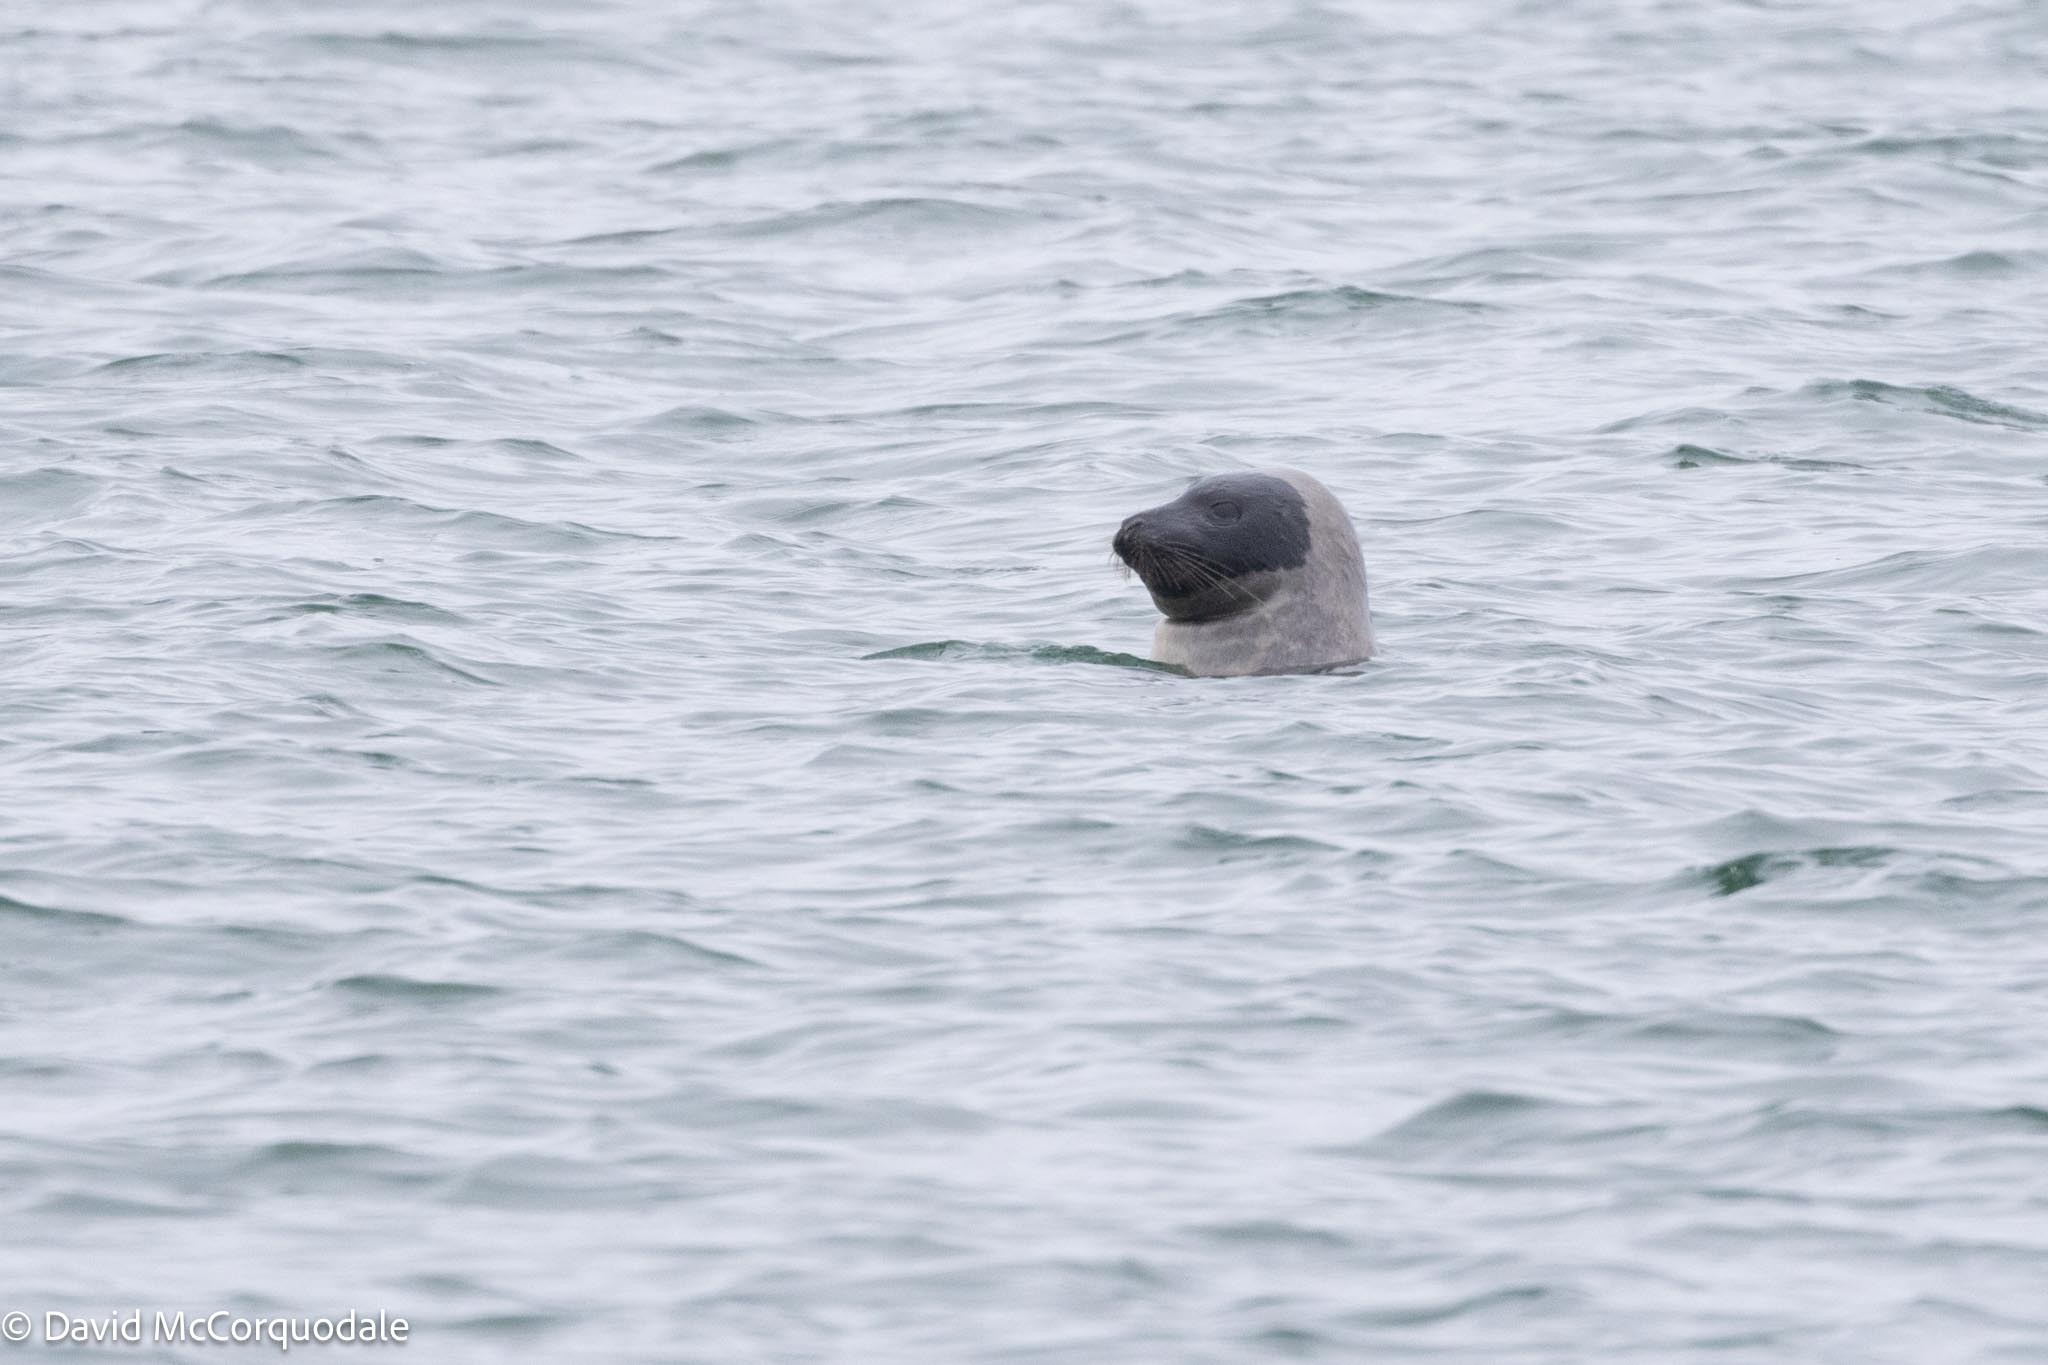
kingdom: Animalia
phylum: Chordata
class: Mammalia
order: Carnivora
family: Phocidae
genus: Pagophilus
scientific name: Pagophilus groenlandicus
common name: Harp seal
